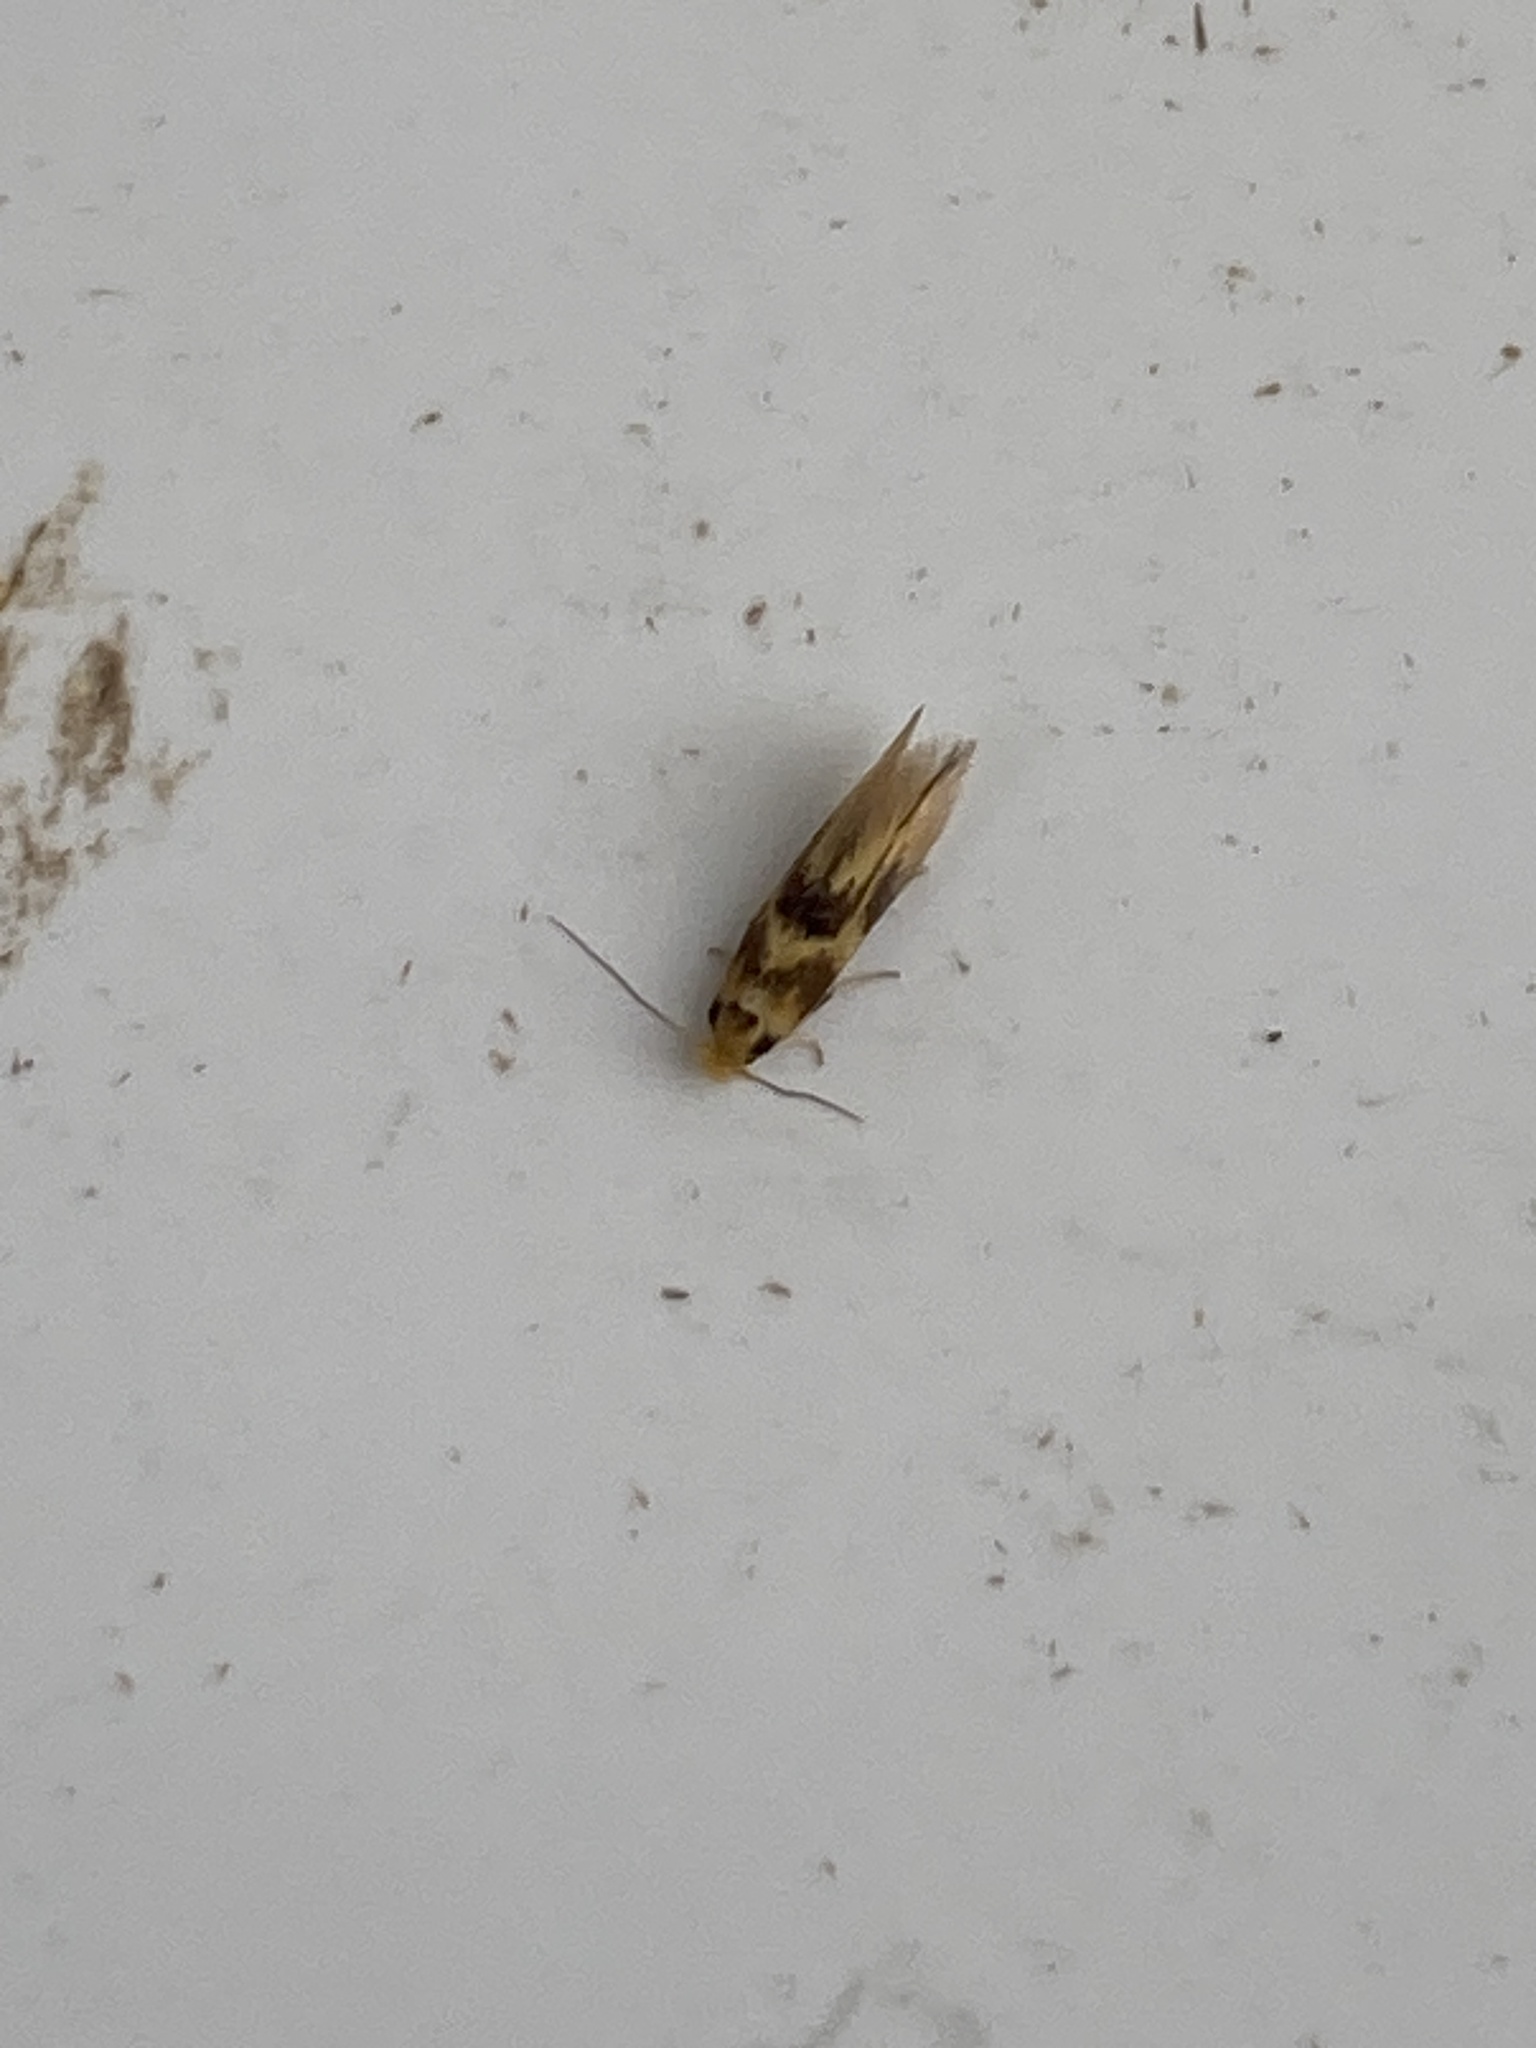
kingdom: Animalia
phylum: Arthropoda
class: Insecta
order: Lepidoptera
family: Bucculatricidae
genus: Bucculatrix
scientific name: Bucculatrix thoracella
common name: Lime bent-wing
